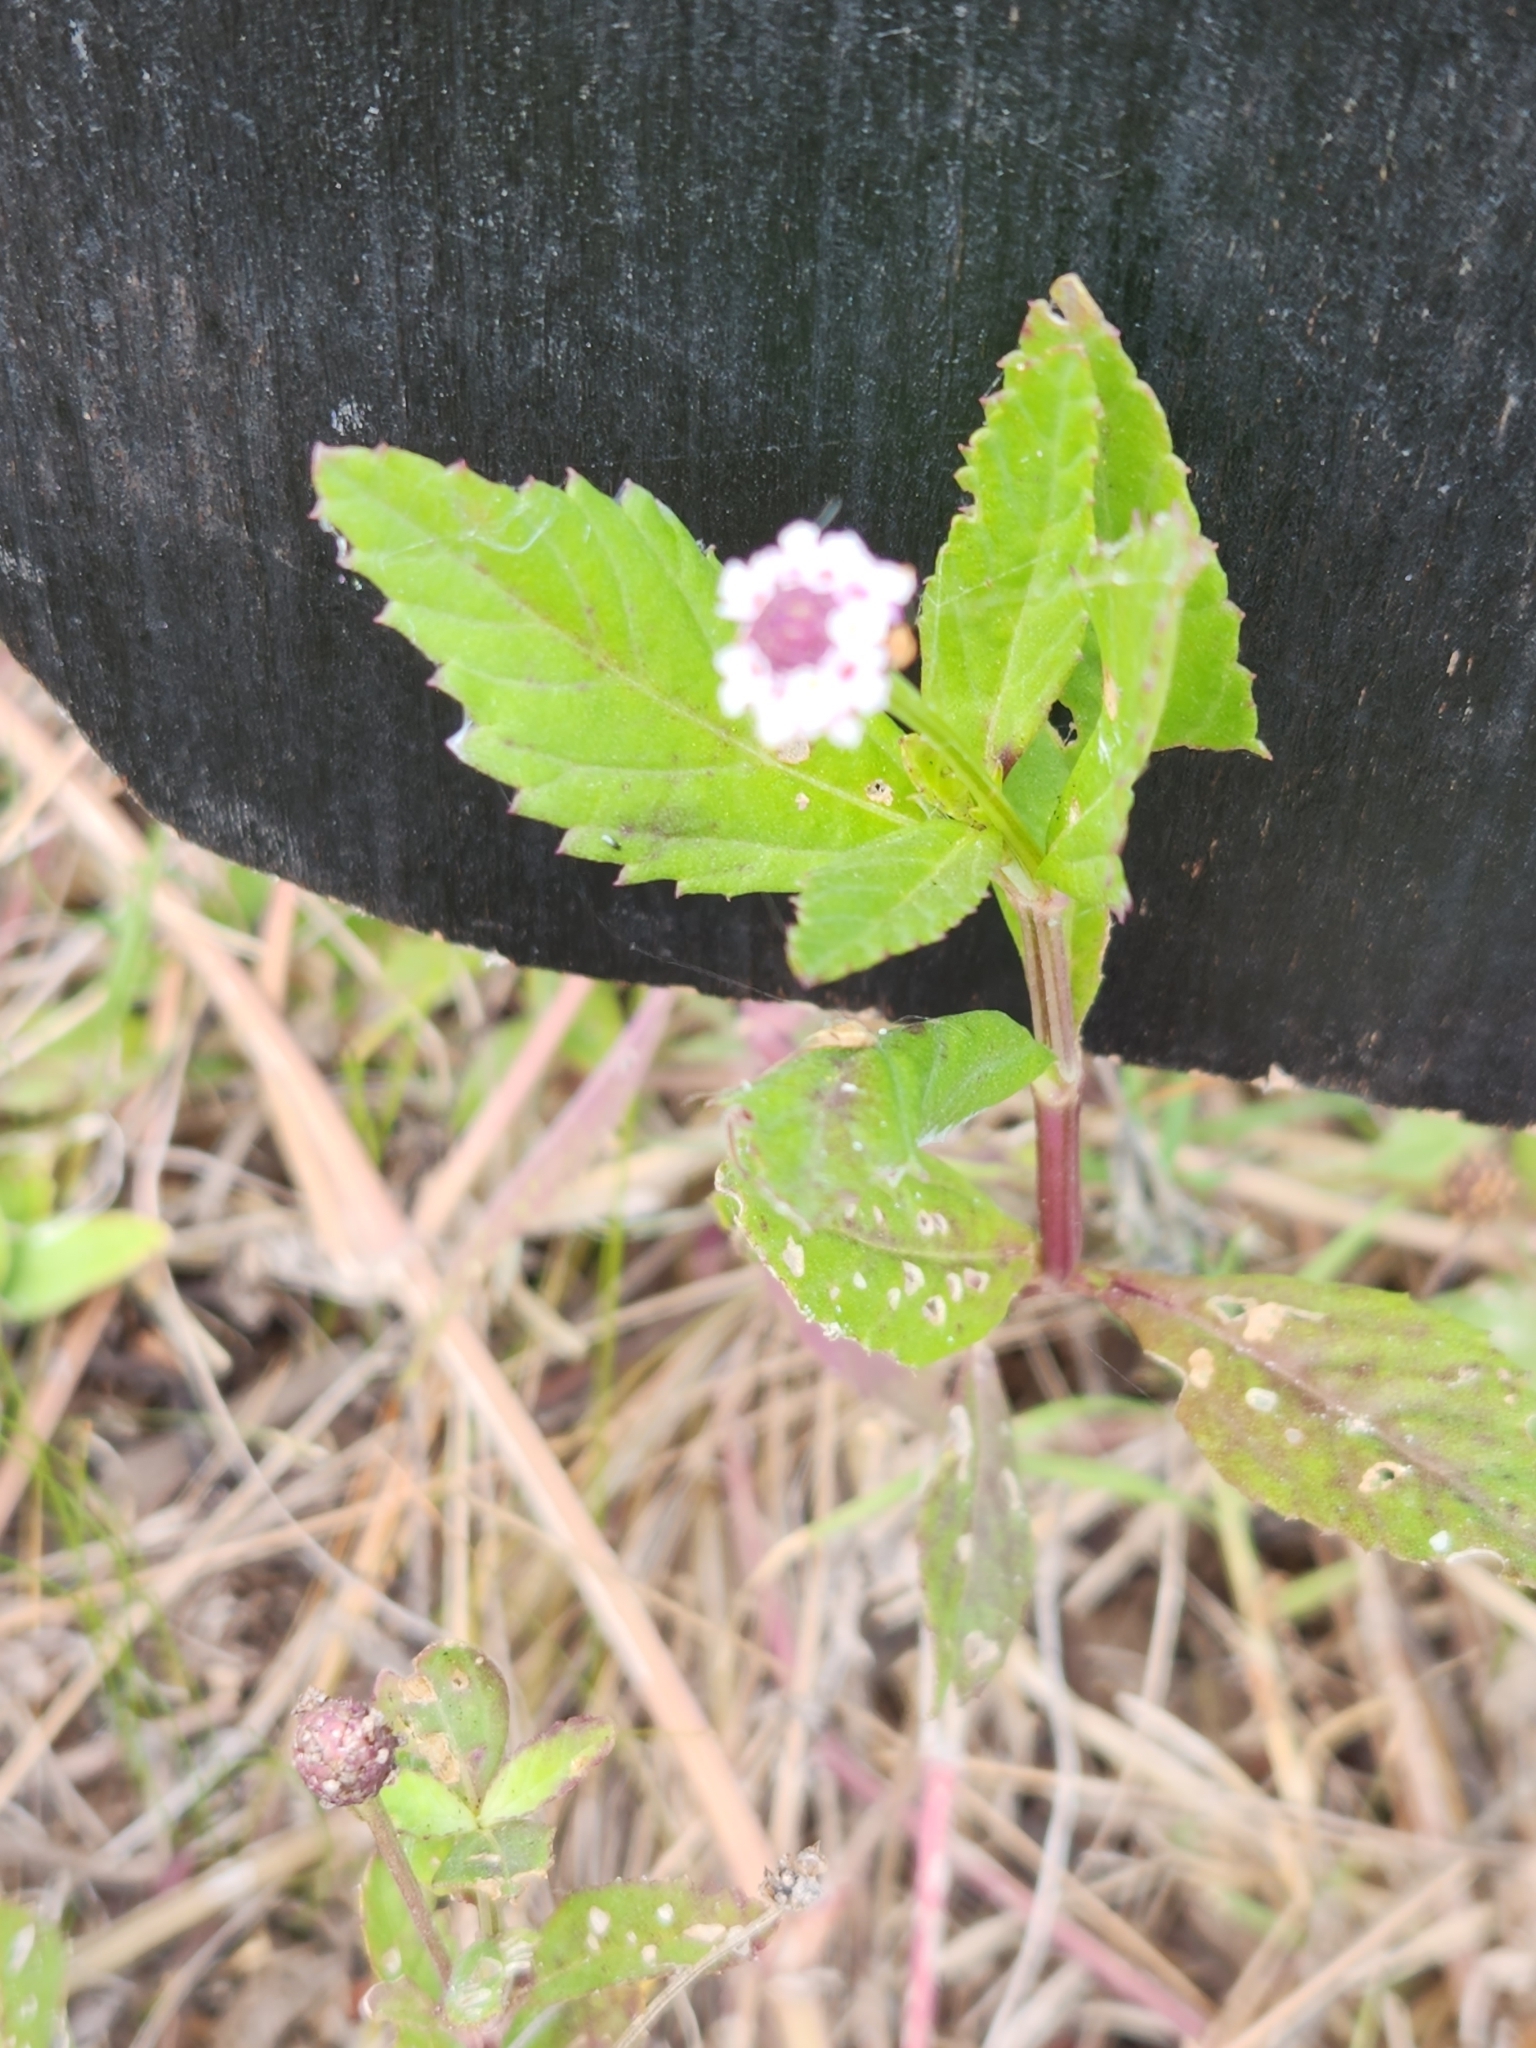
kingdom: Plantae
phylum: Tracheophyta
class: Magnoliopsida
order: Lamiales
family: Verbenaceae
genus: Phyla
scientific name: Phyla lanceolata
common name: Northern fogfruit
